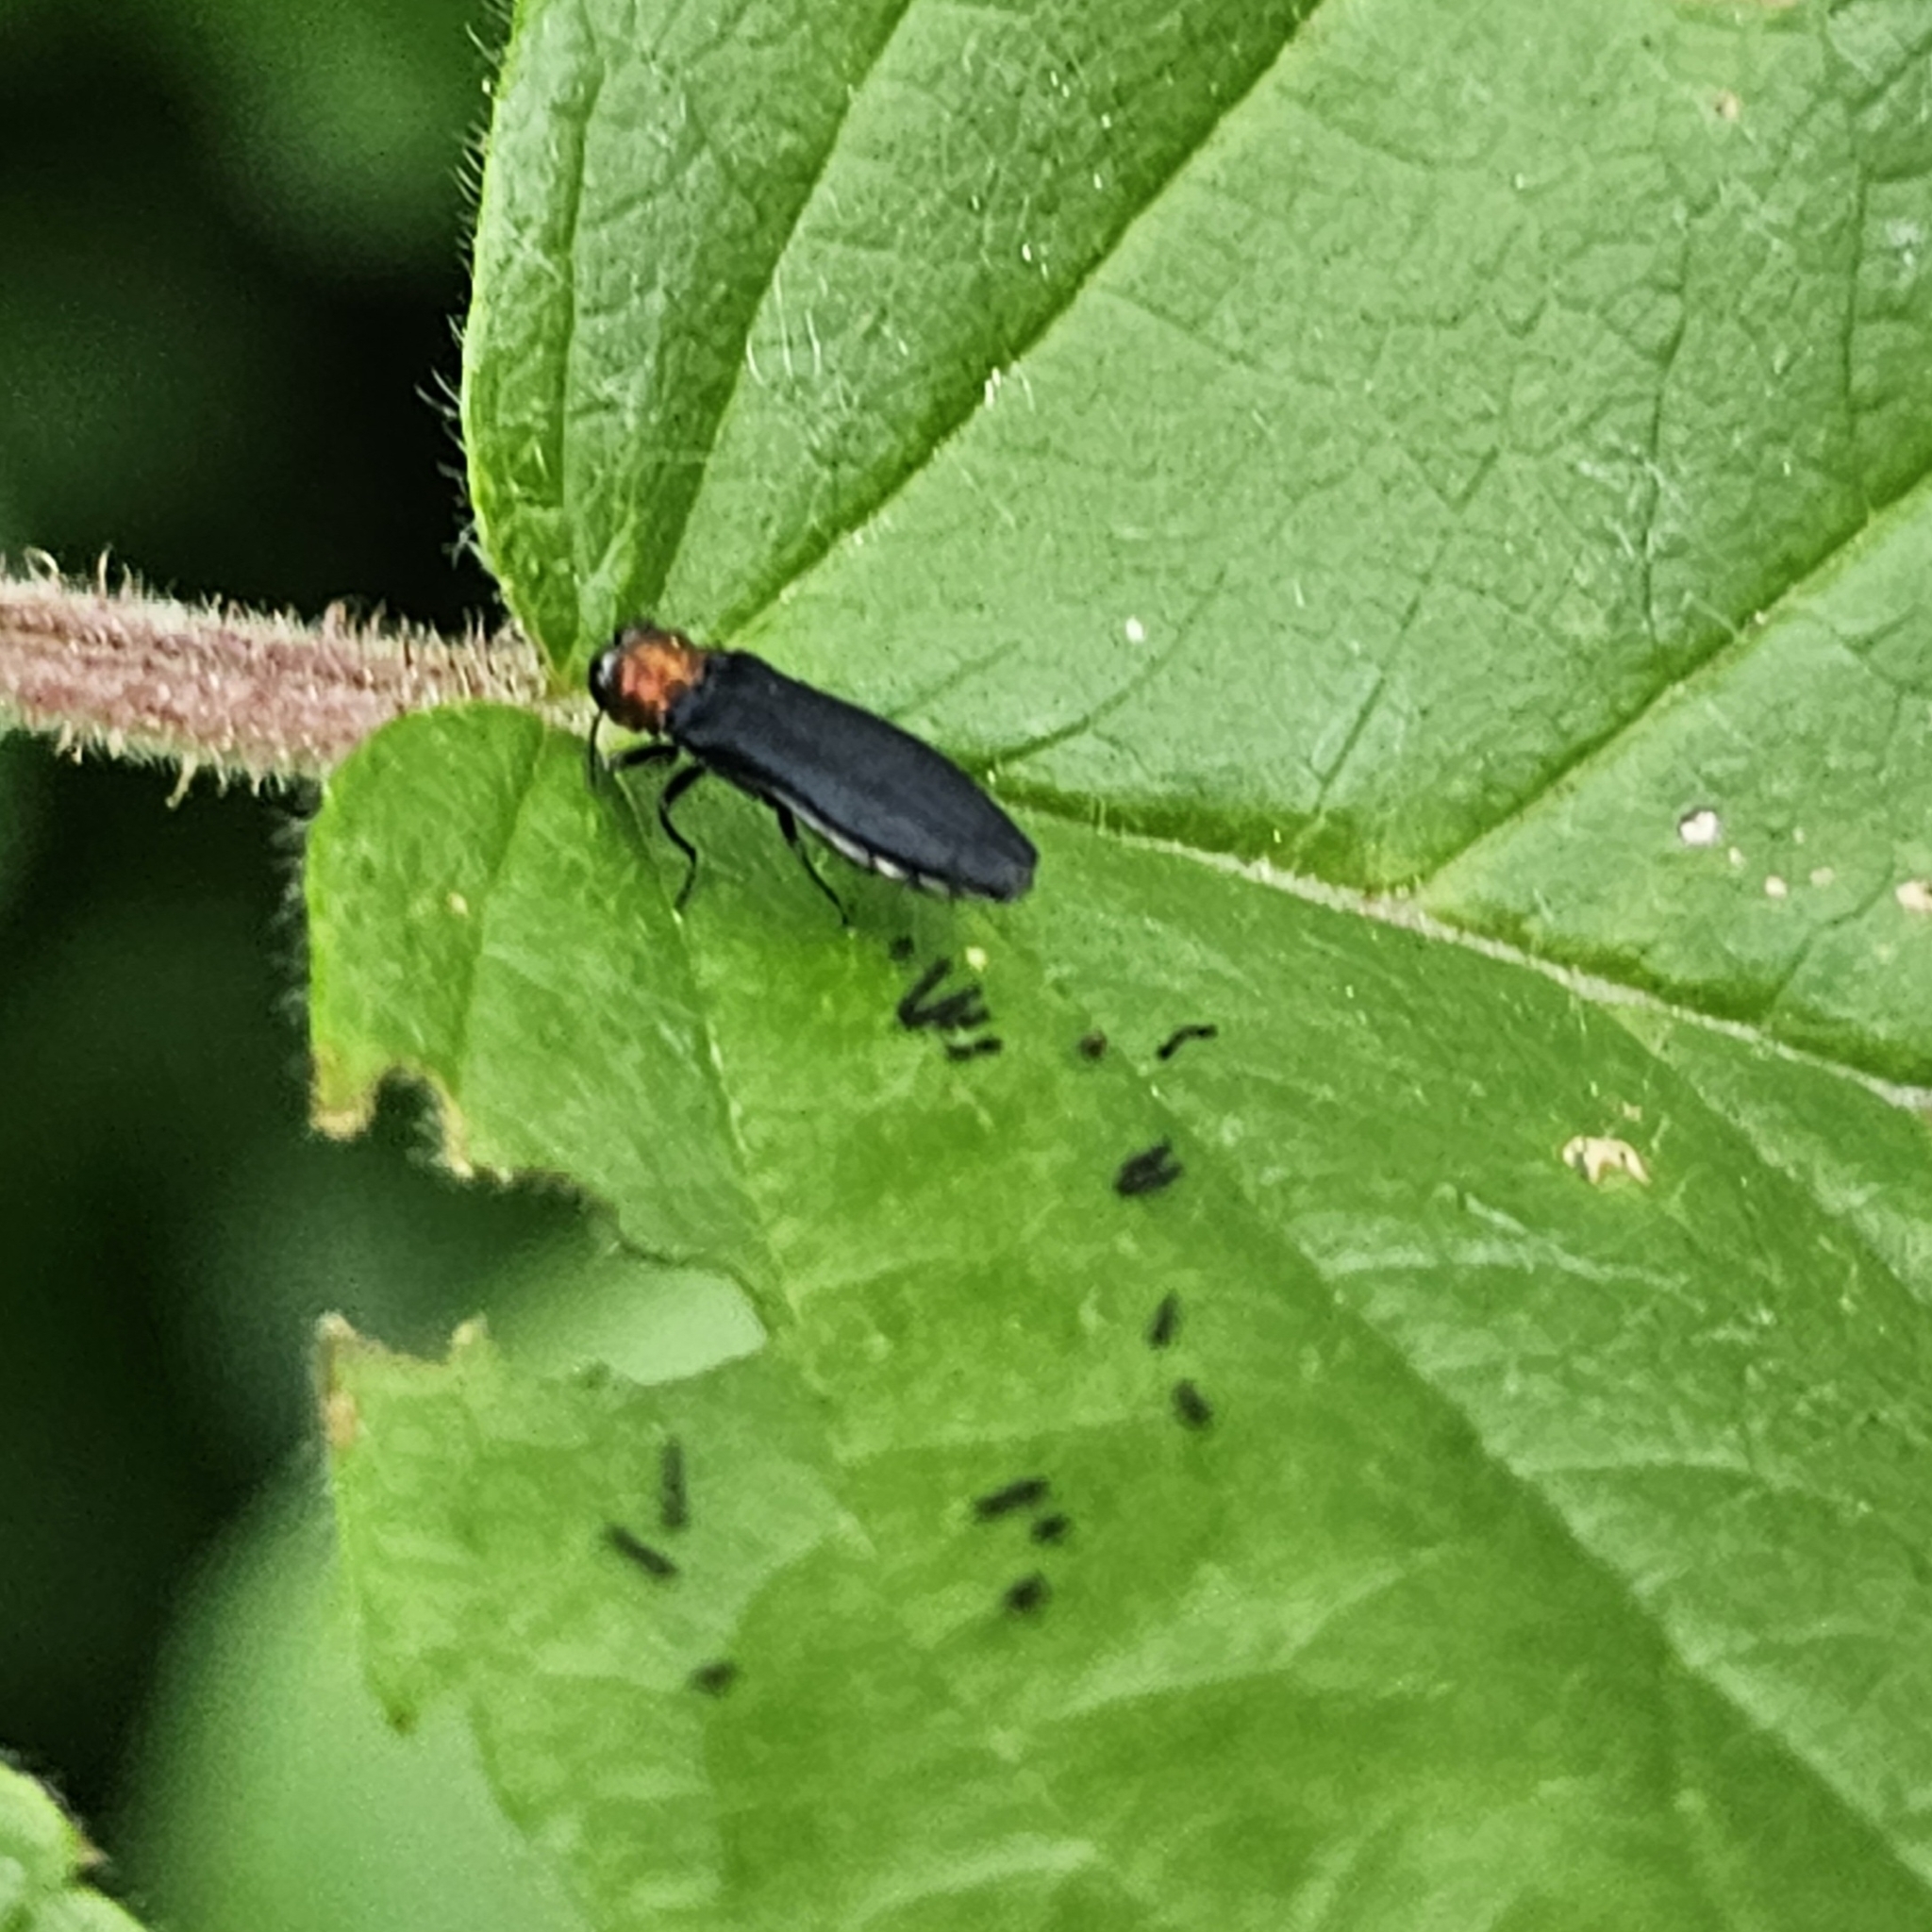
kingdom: Animalia
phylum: Arthropoda
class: Insecta
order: Coleoptera
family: Buprestidae
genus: Agrilus
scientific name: Agrilus ruficollis
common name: Red-necked cane borer beetle
